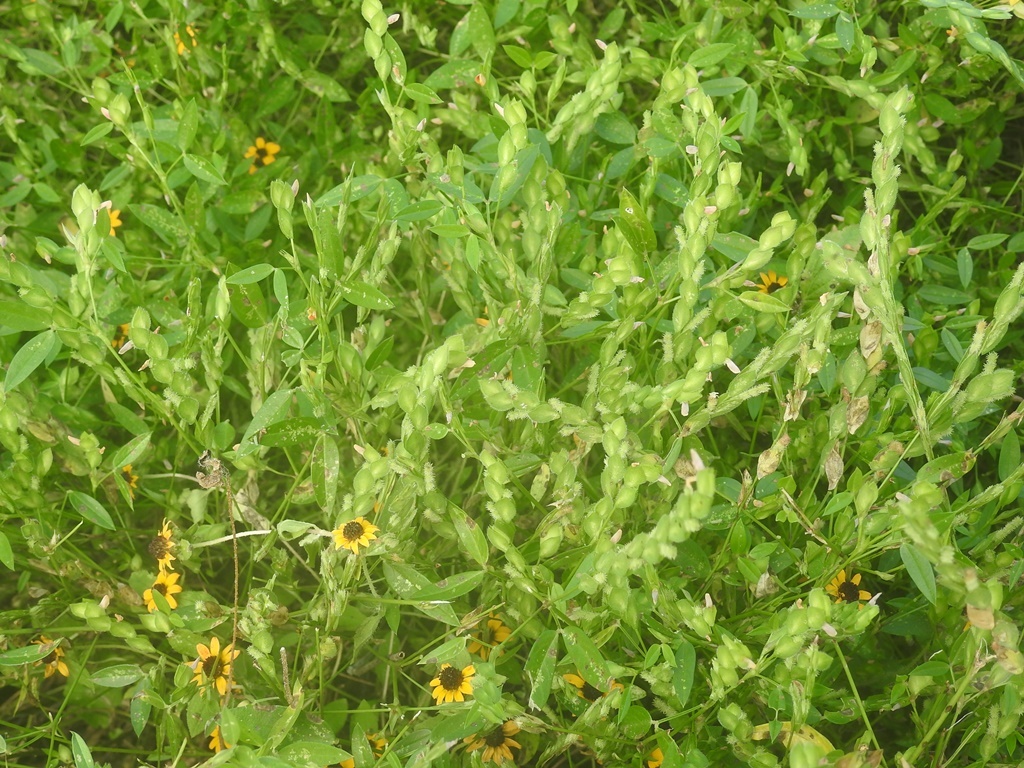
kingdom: Plantae
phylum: Tracheophyta
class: Magnoliopsida
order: Fabales
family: Fabaceae
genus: Zornia
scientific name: Zornia reticulata
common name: Reticulate viperina
